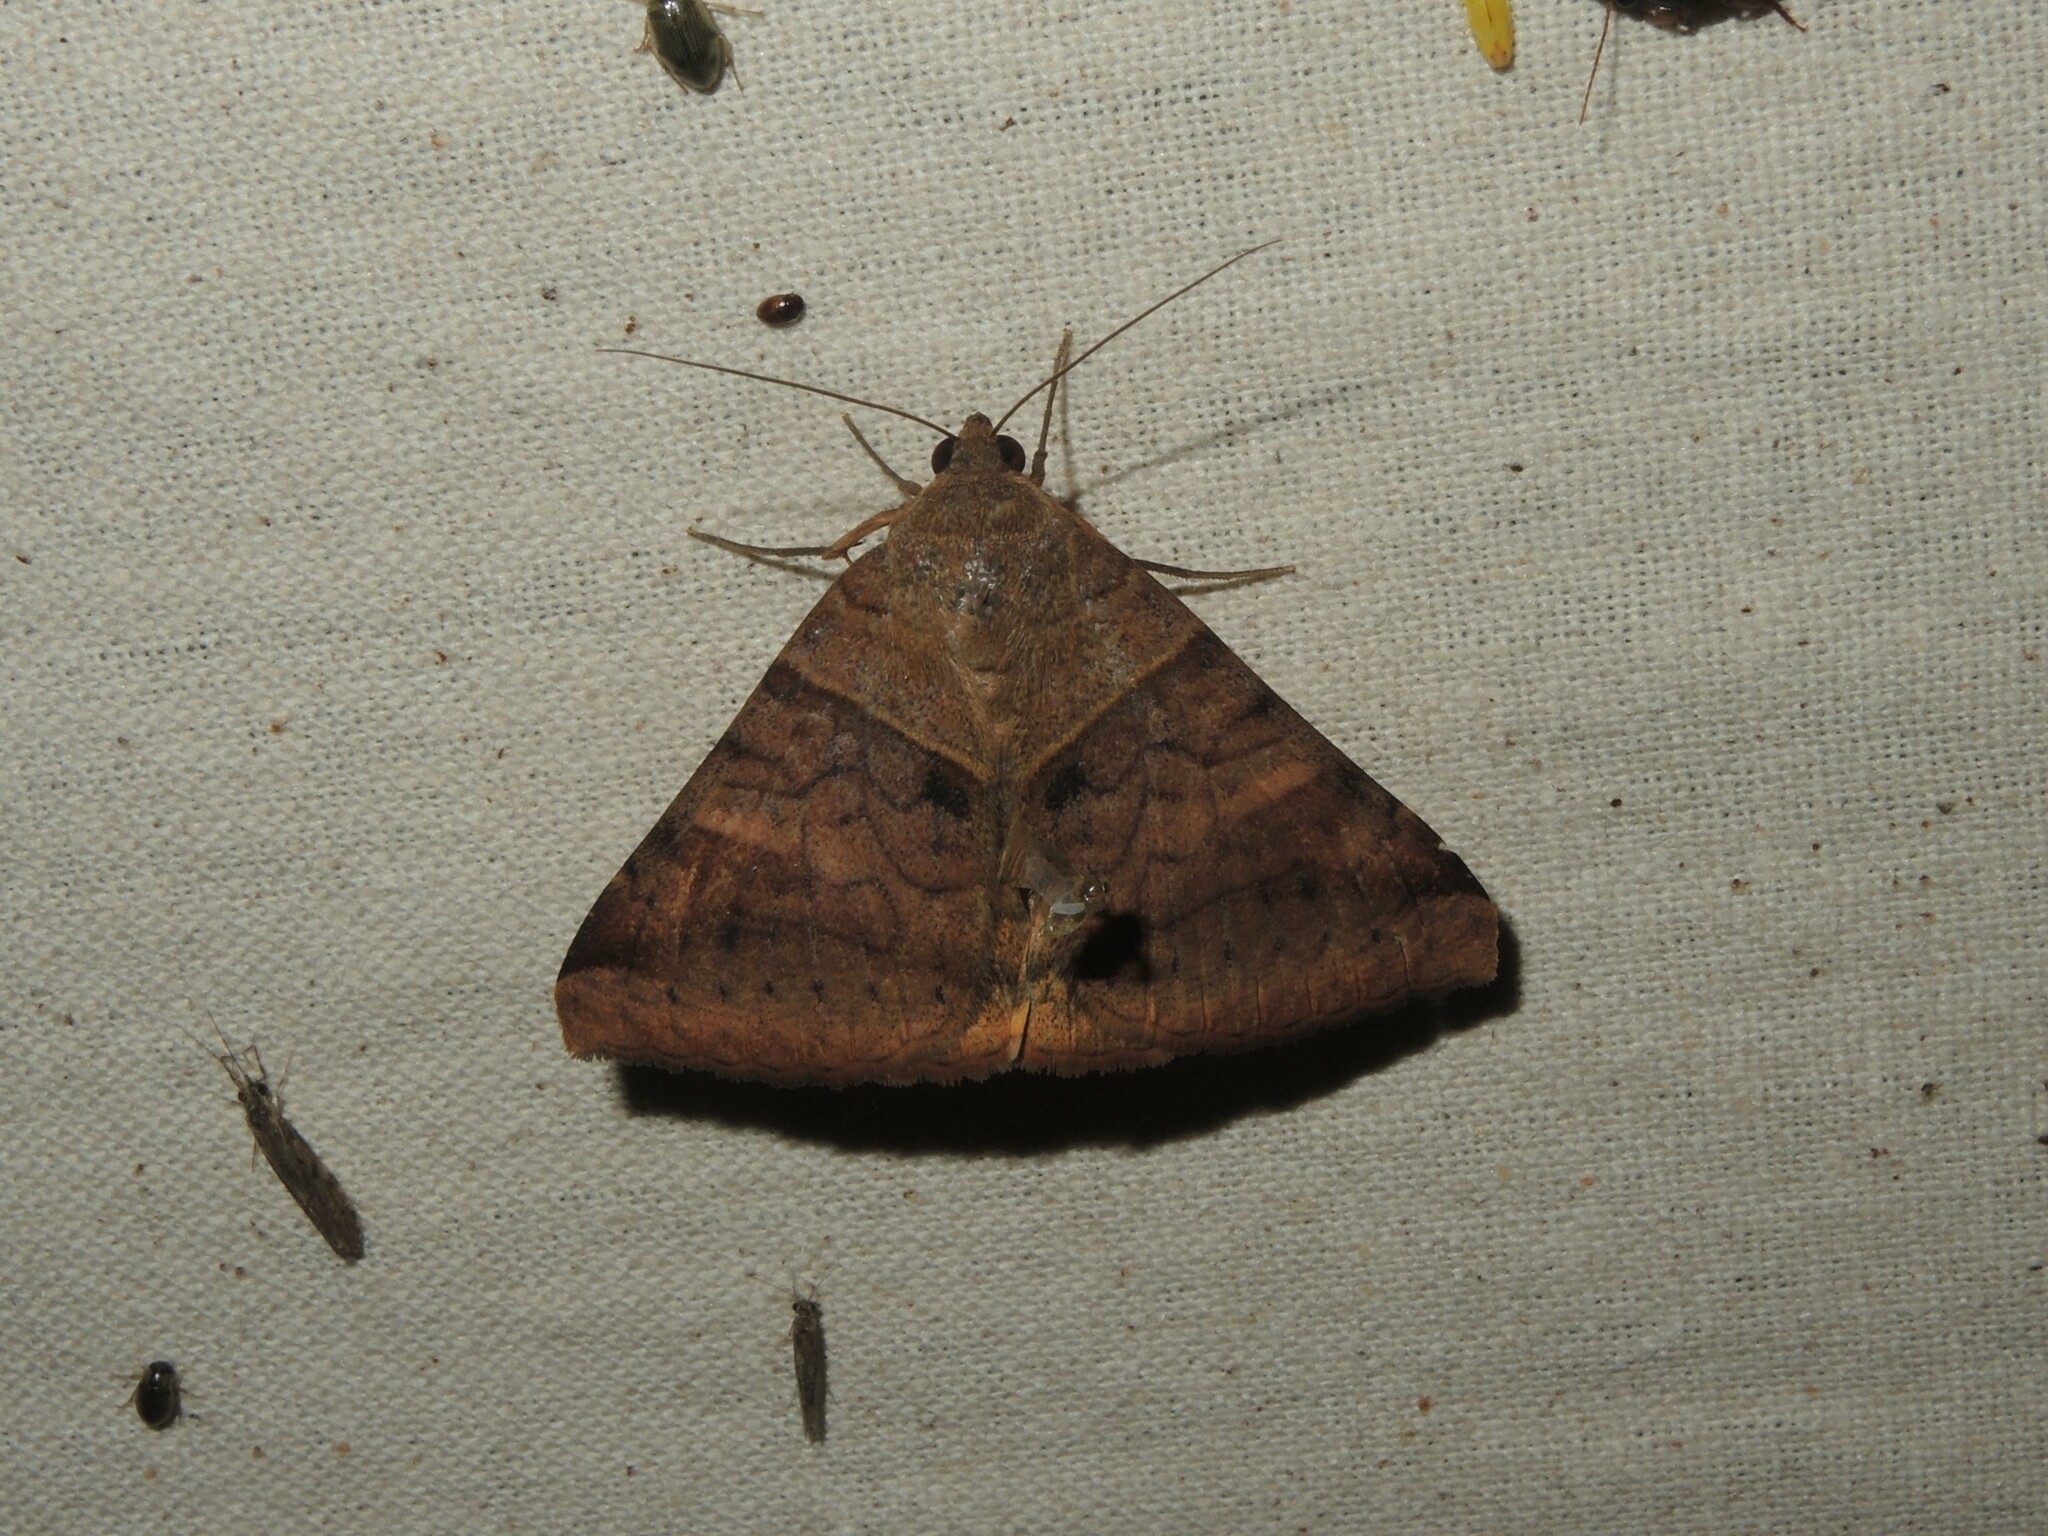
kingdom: Animalia
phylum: Arthropoda
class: Insecta
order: Lepidoptera
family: Erebidae
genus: Mocis
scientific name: Mocis undata
